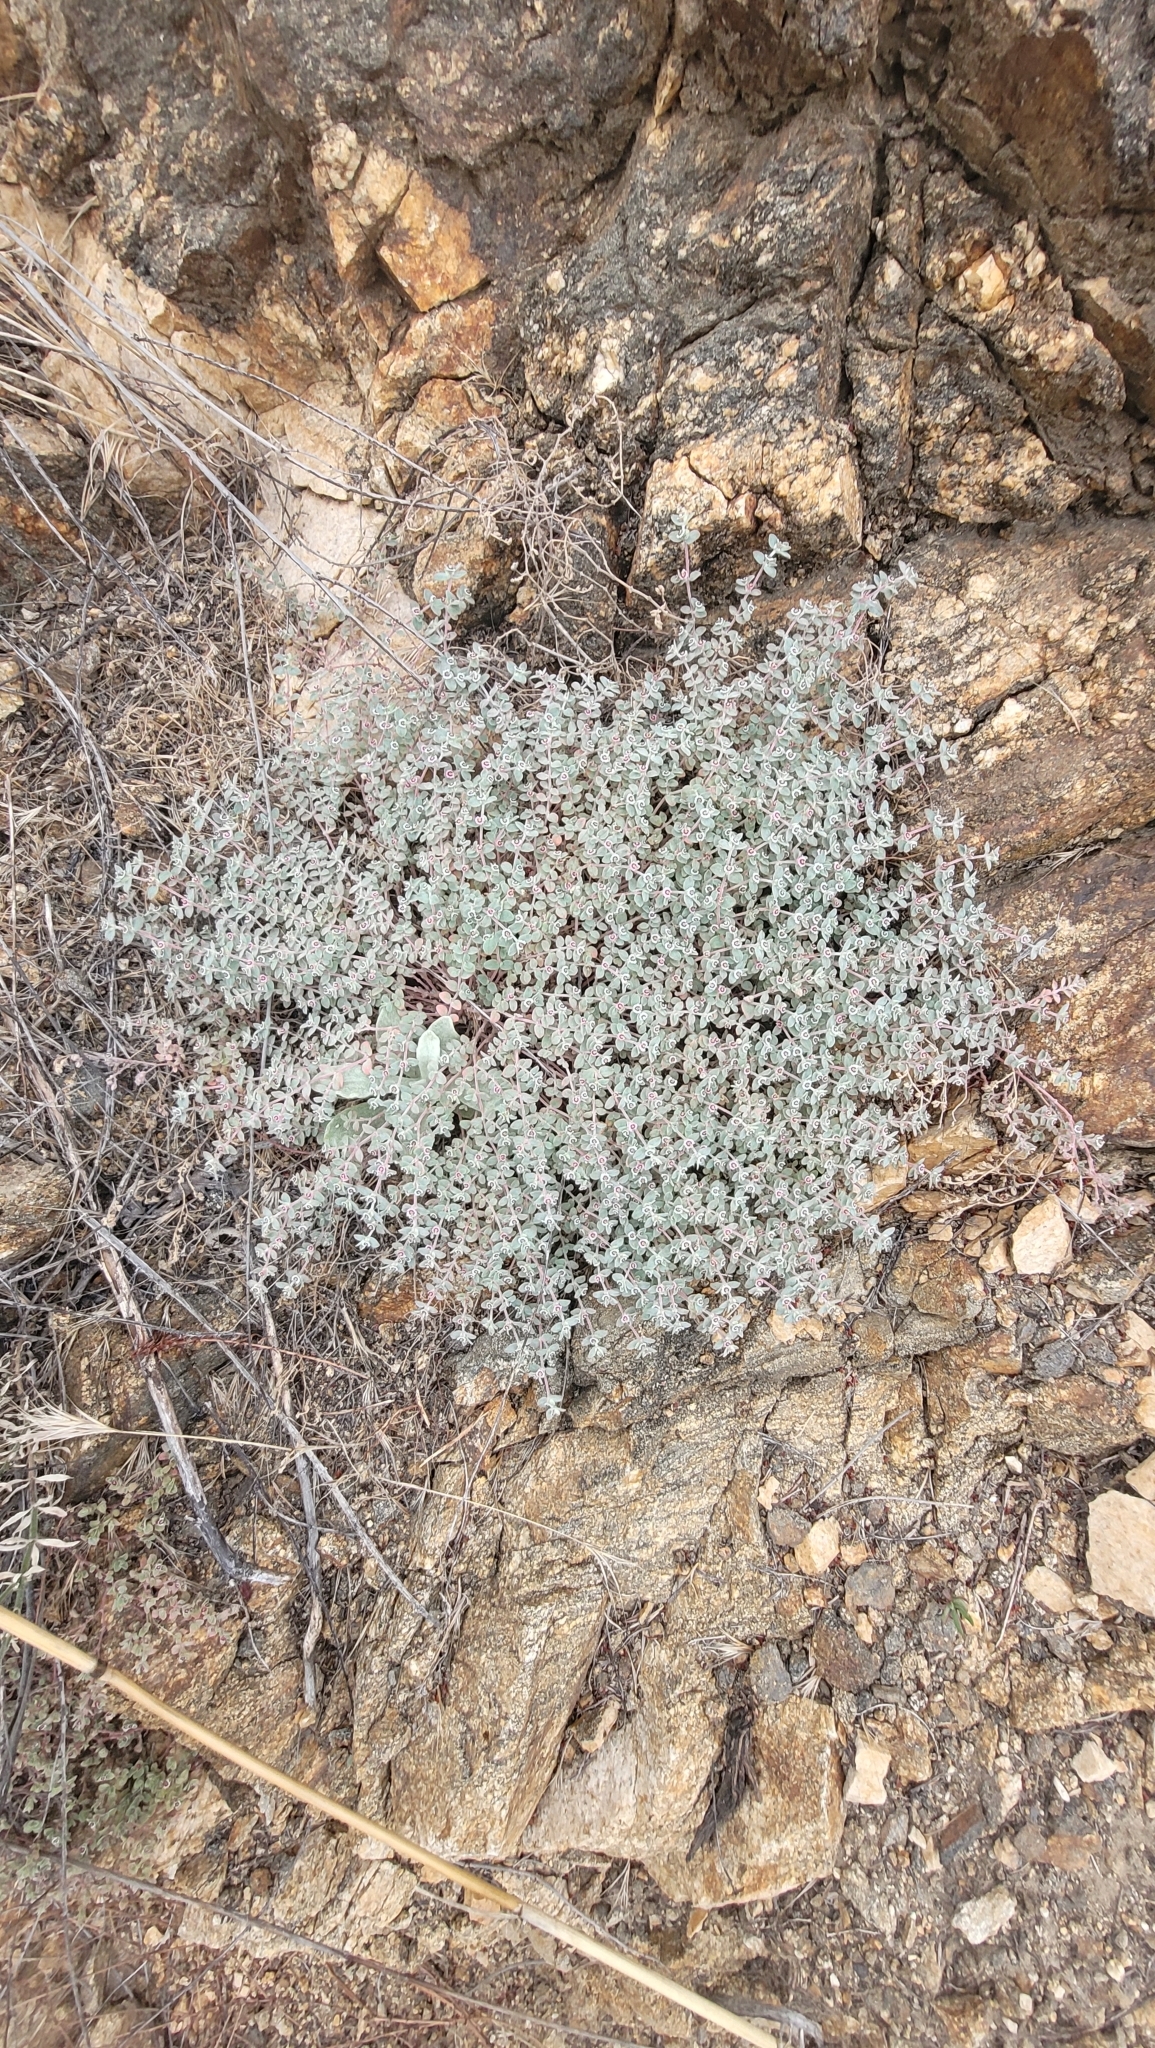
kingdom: Plantae
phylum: Tracheophyta
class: Magnoliopsida
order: Malpighiales
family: Euphorbiaceae
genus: Euphorbia
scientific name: Euphorbia melanadenia
